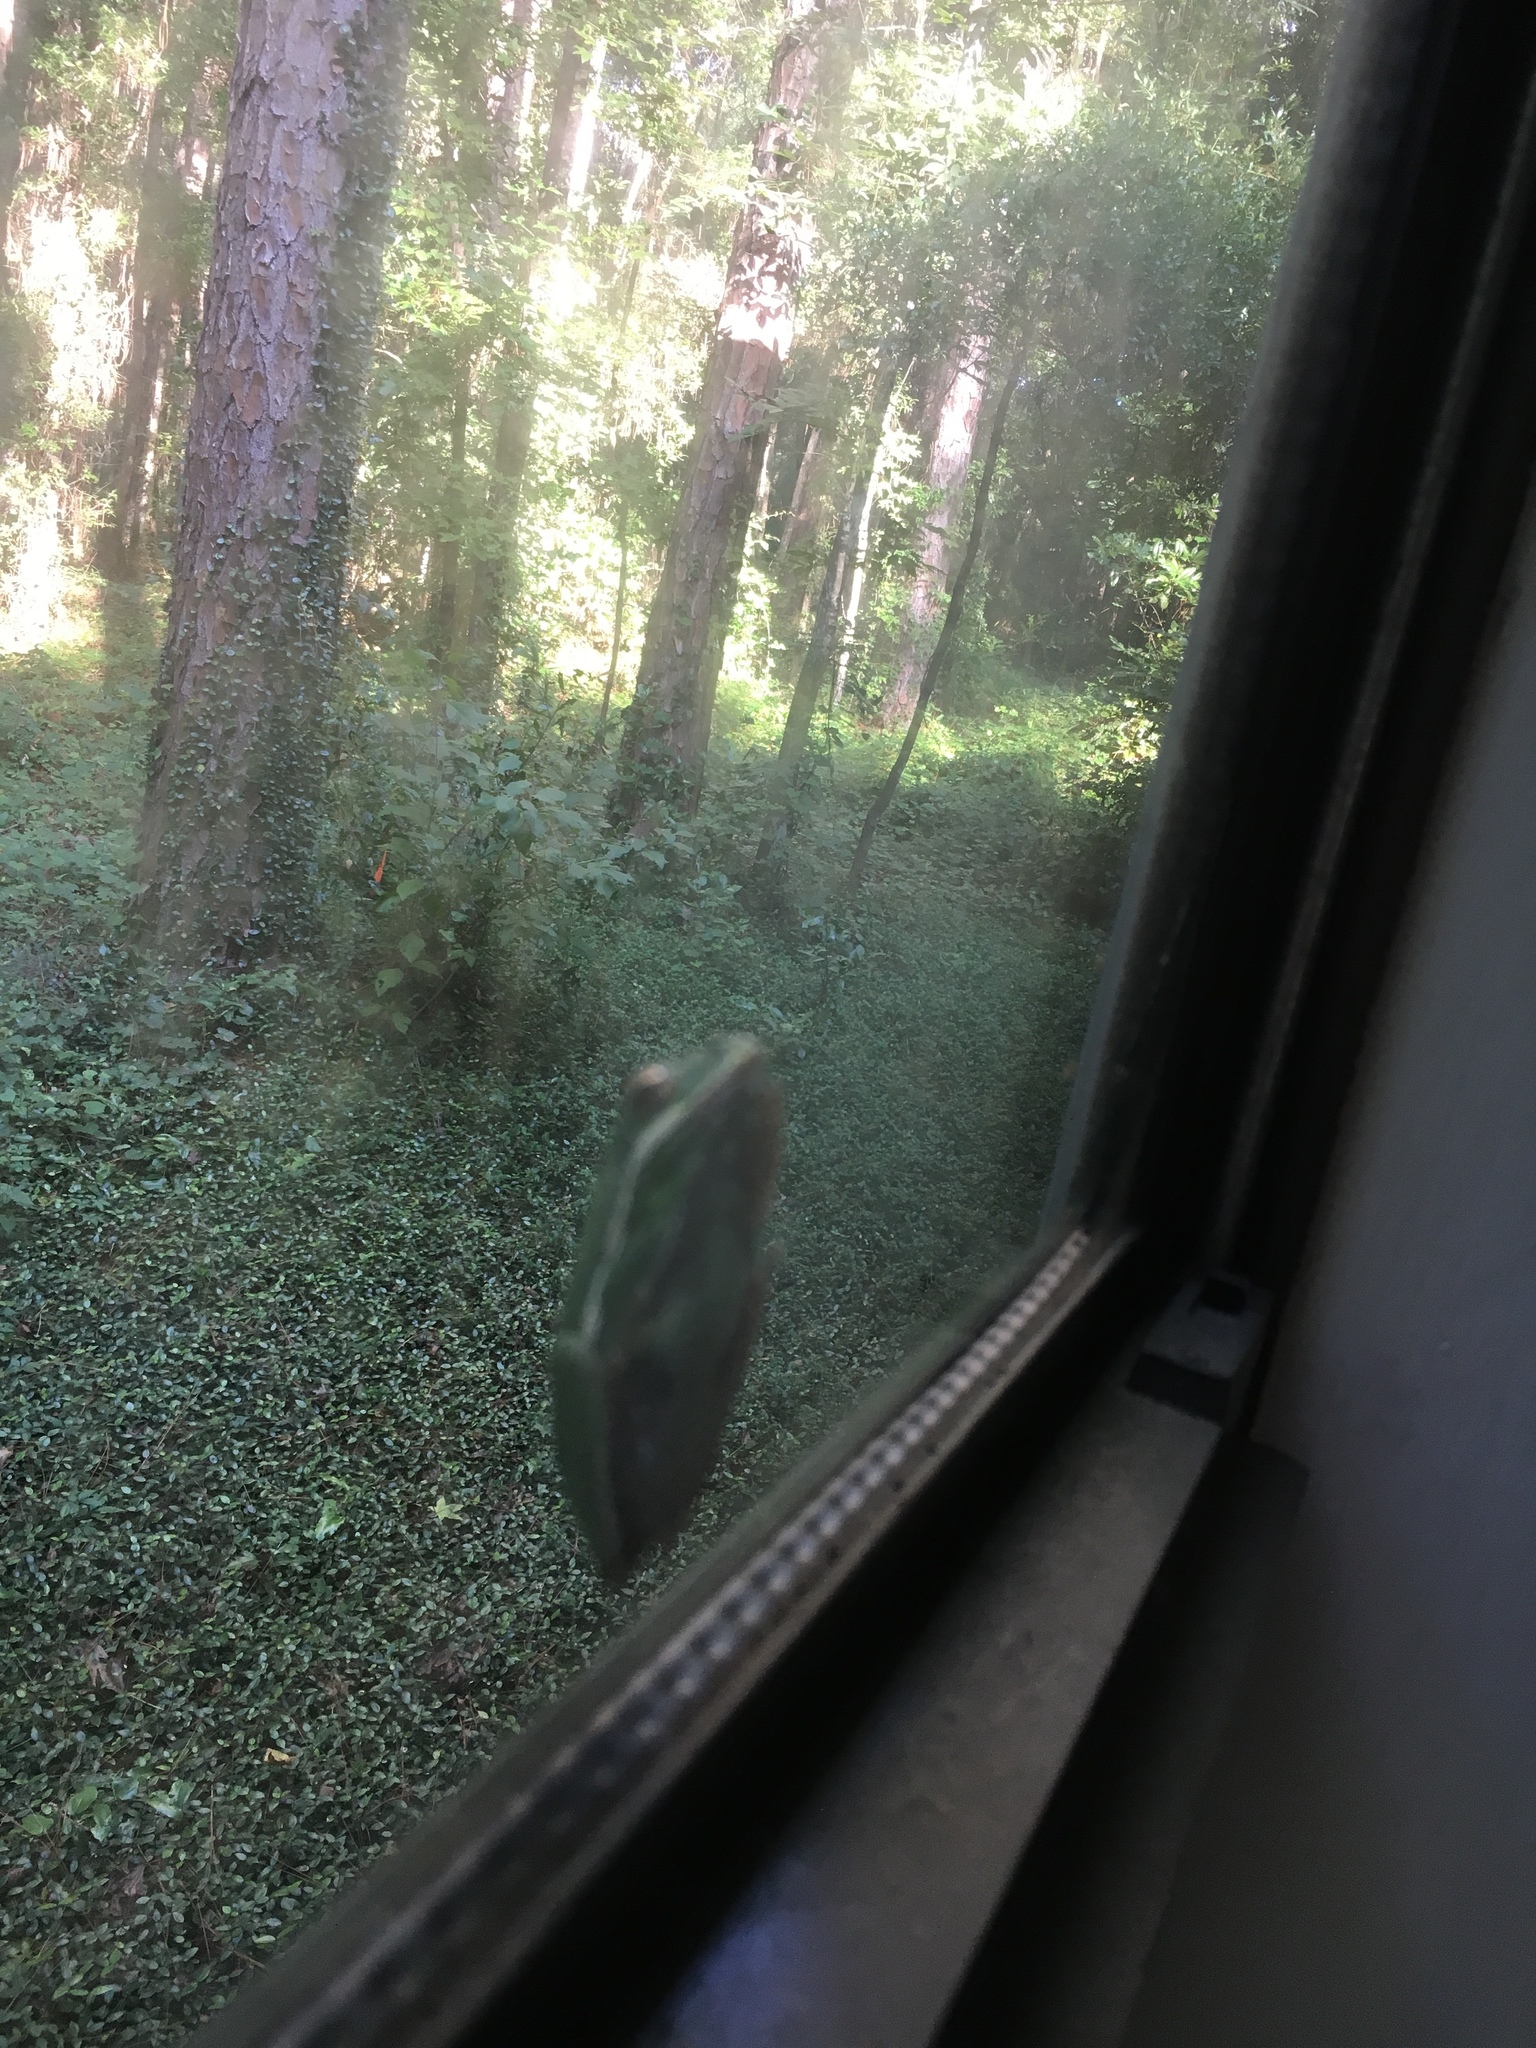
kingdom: Animalia
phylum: Chordata
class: Amphibia
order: Anura
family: Hylidae
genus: Dryophytes
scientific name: Dryophytes cinereus
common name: Green treefrog
